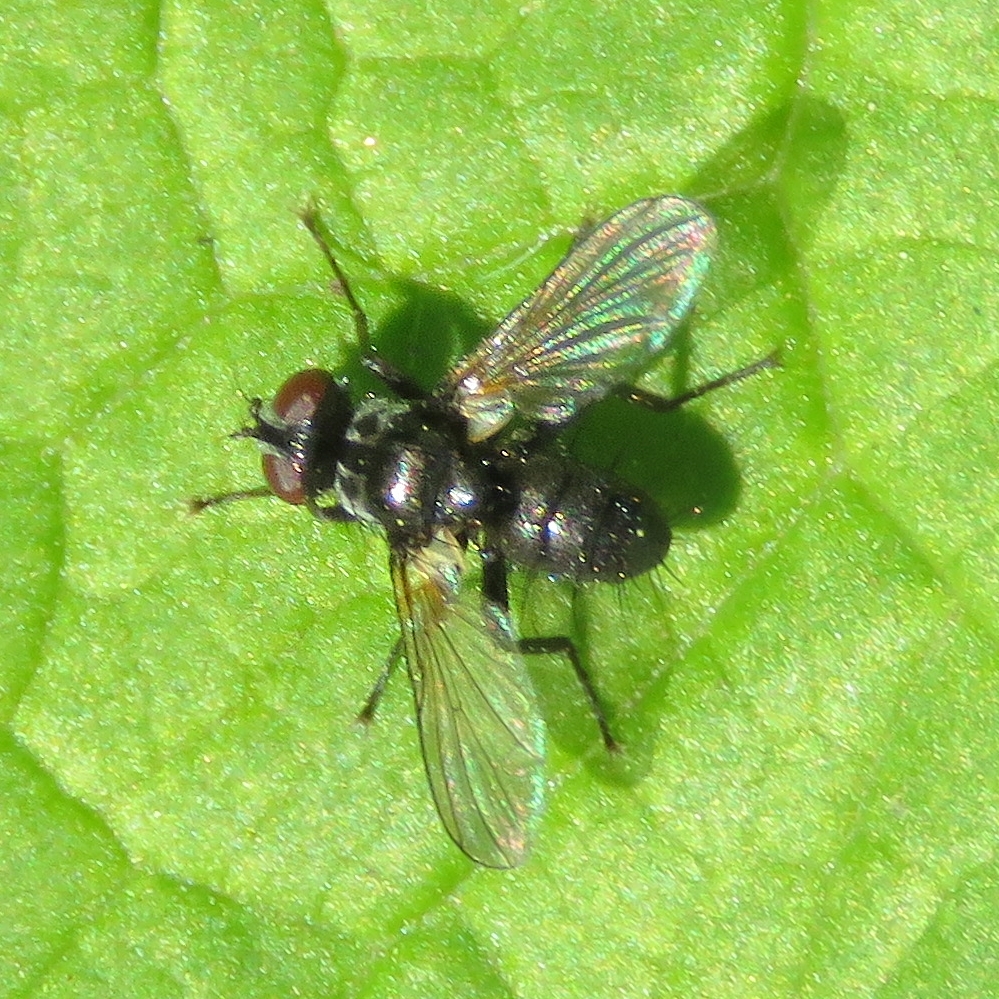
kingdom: Animalia
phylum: Arthropoda
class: Insecta
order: Diptera
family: Tachinidae
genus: Phania
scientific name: Phania funesta
